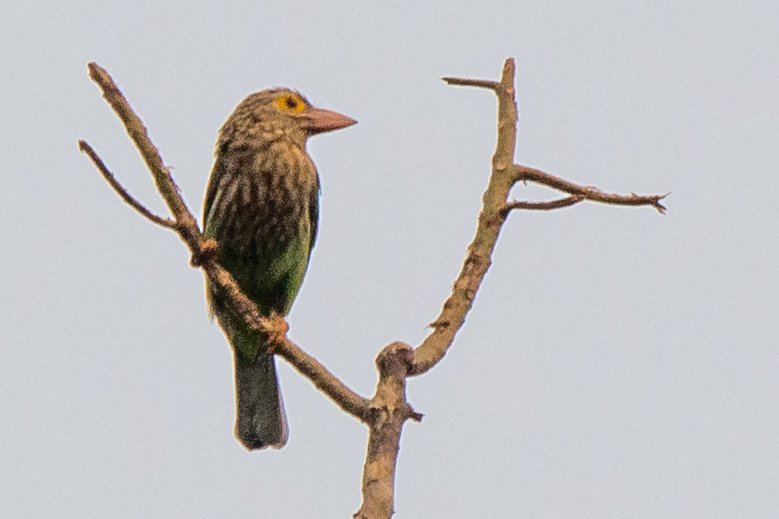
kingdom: Animalia
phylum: Chordata
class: Aves
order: Piciformes
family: Megalaimidae
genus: Psilopogon
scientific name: Psilopogon lineatus
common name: Lineated barbet
